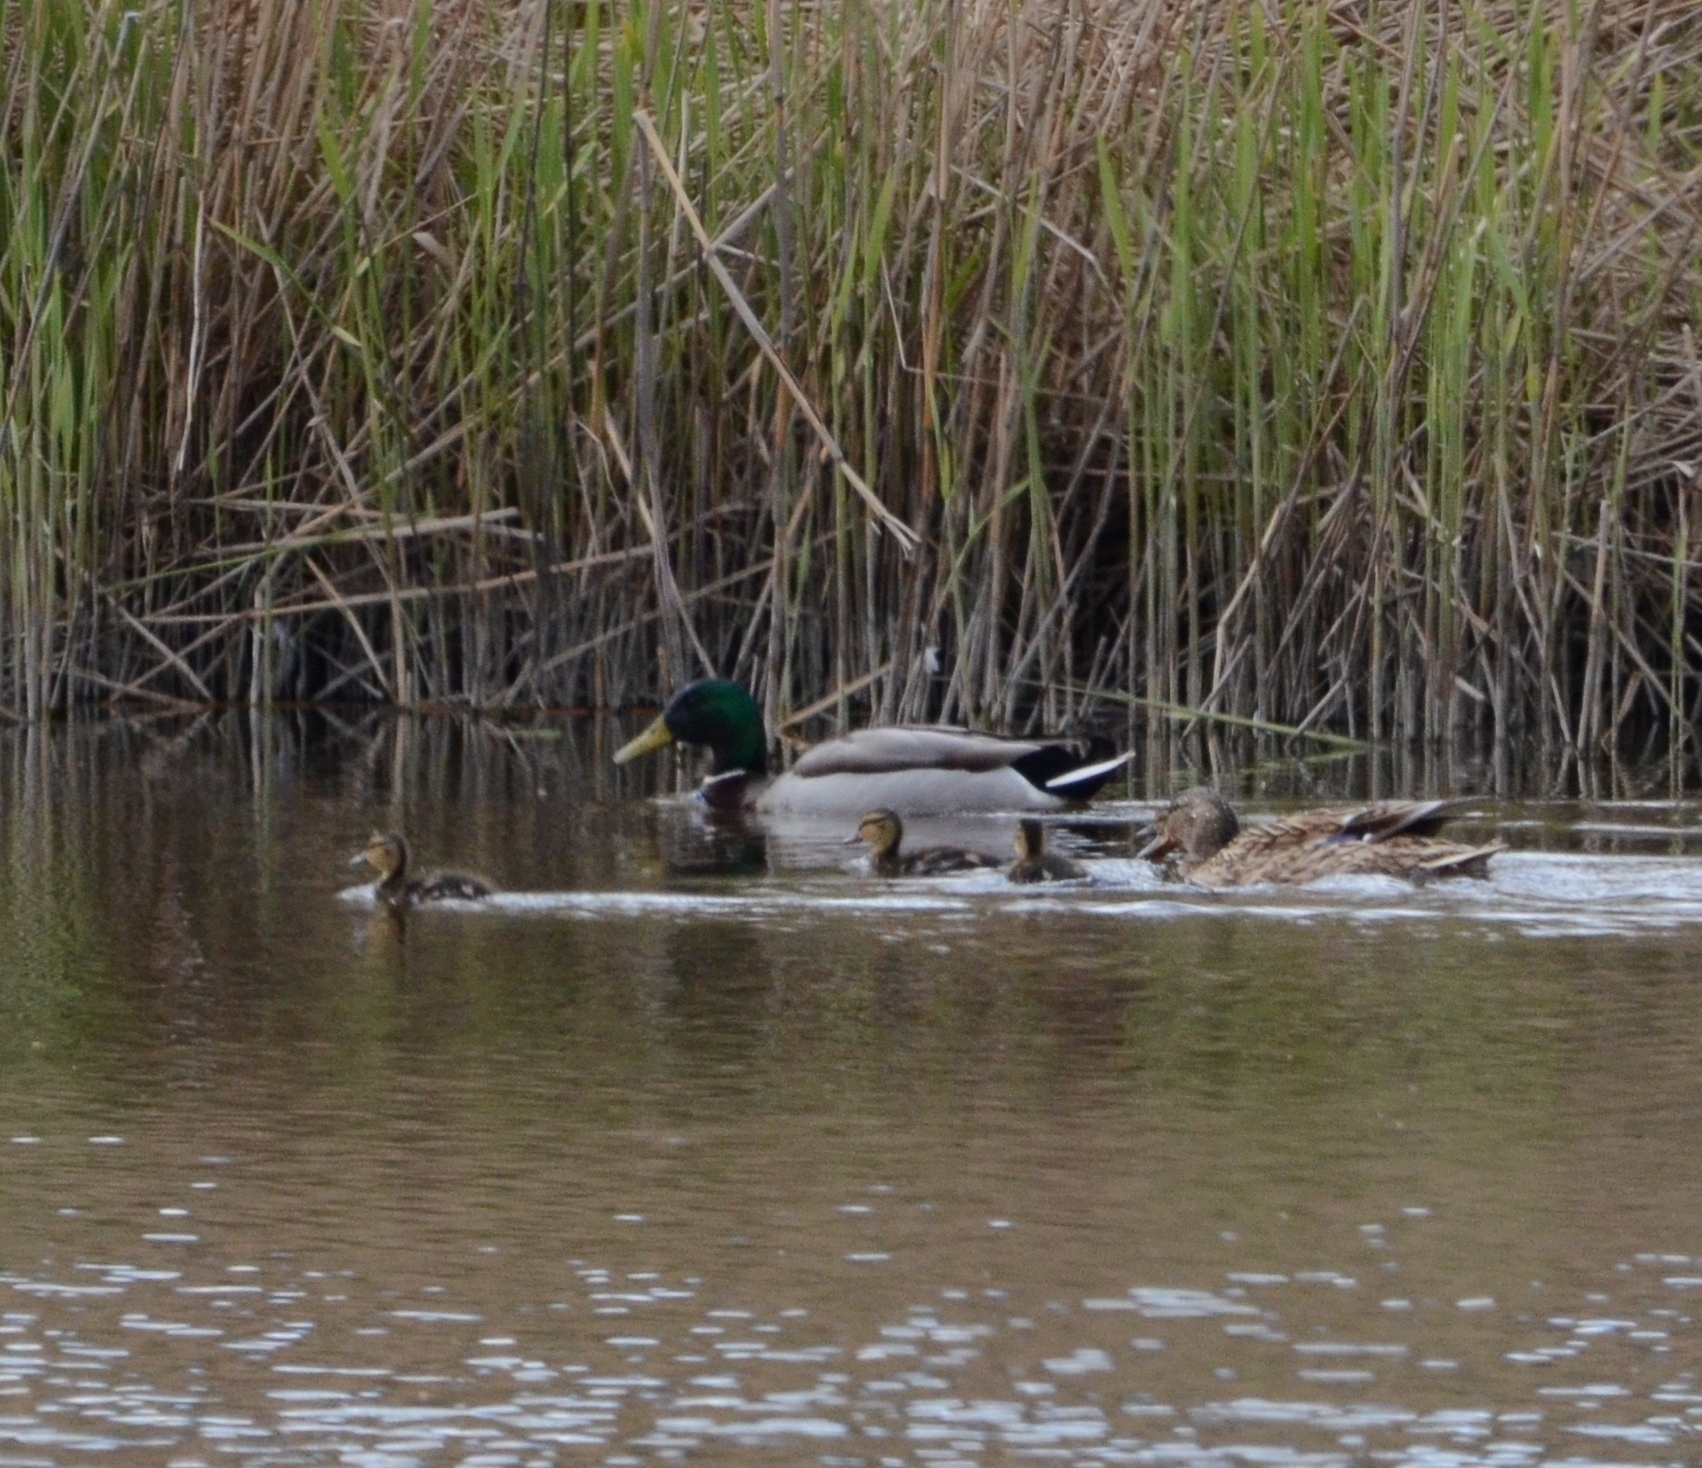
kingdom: Animalia
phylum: Chordata
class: Aves
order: Anseriformes
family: Anatidae
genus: Anas
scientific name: Anas platyrhynchos
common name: Mallard
